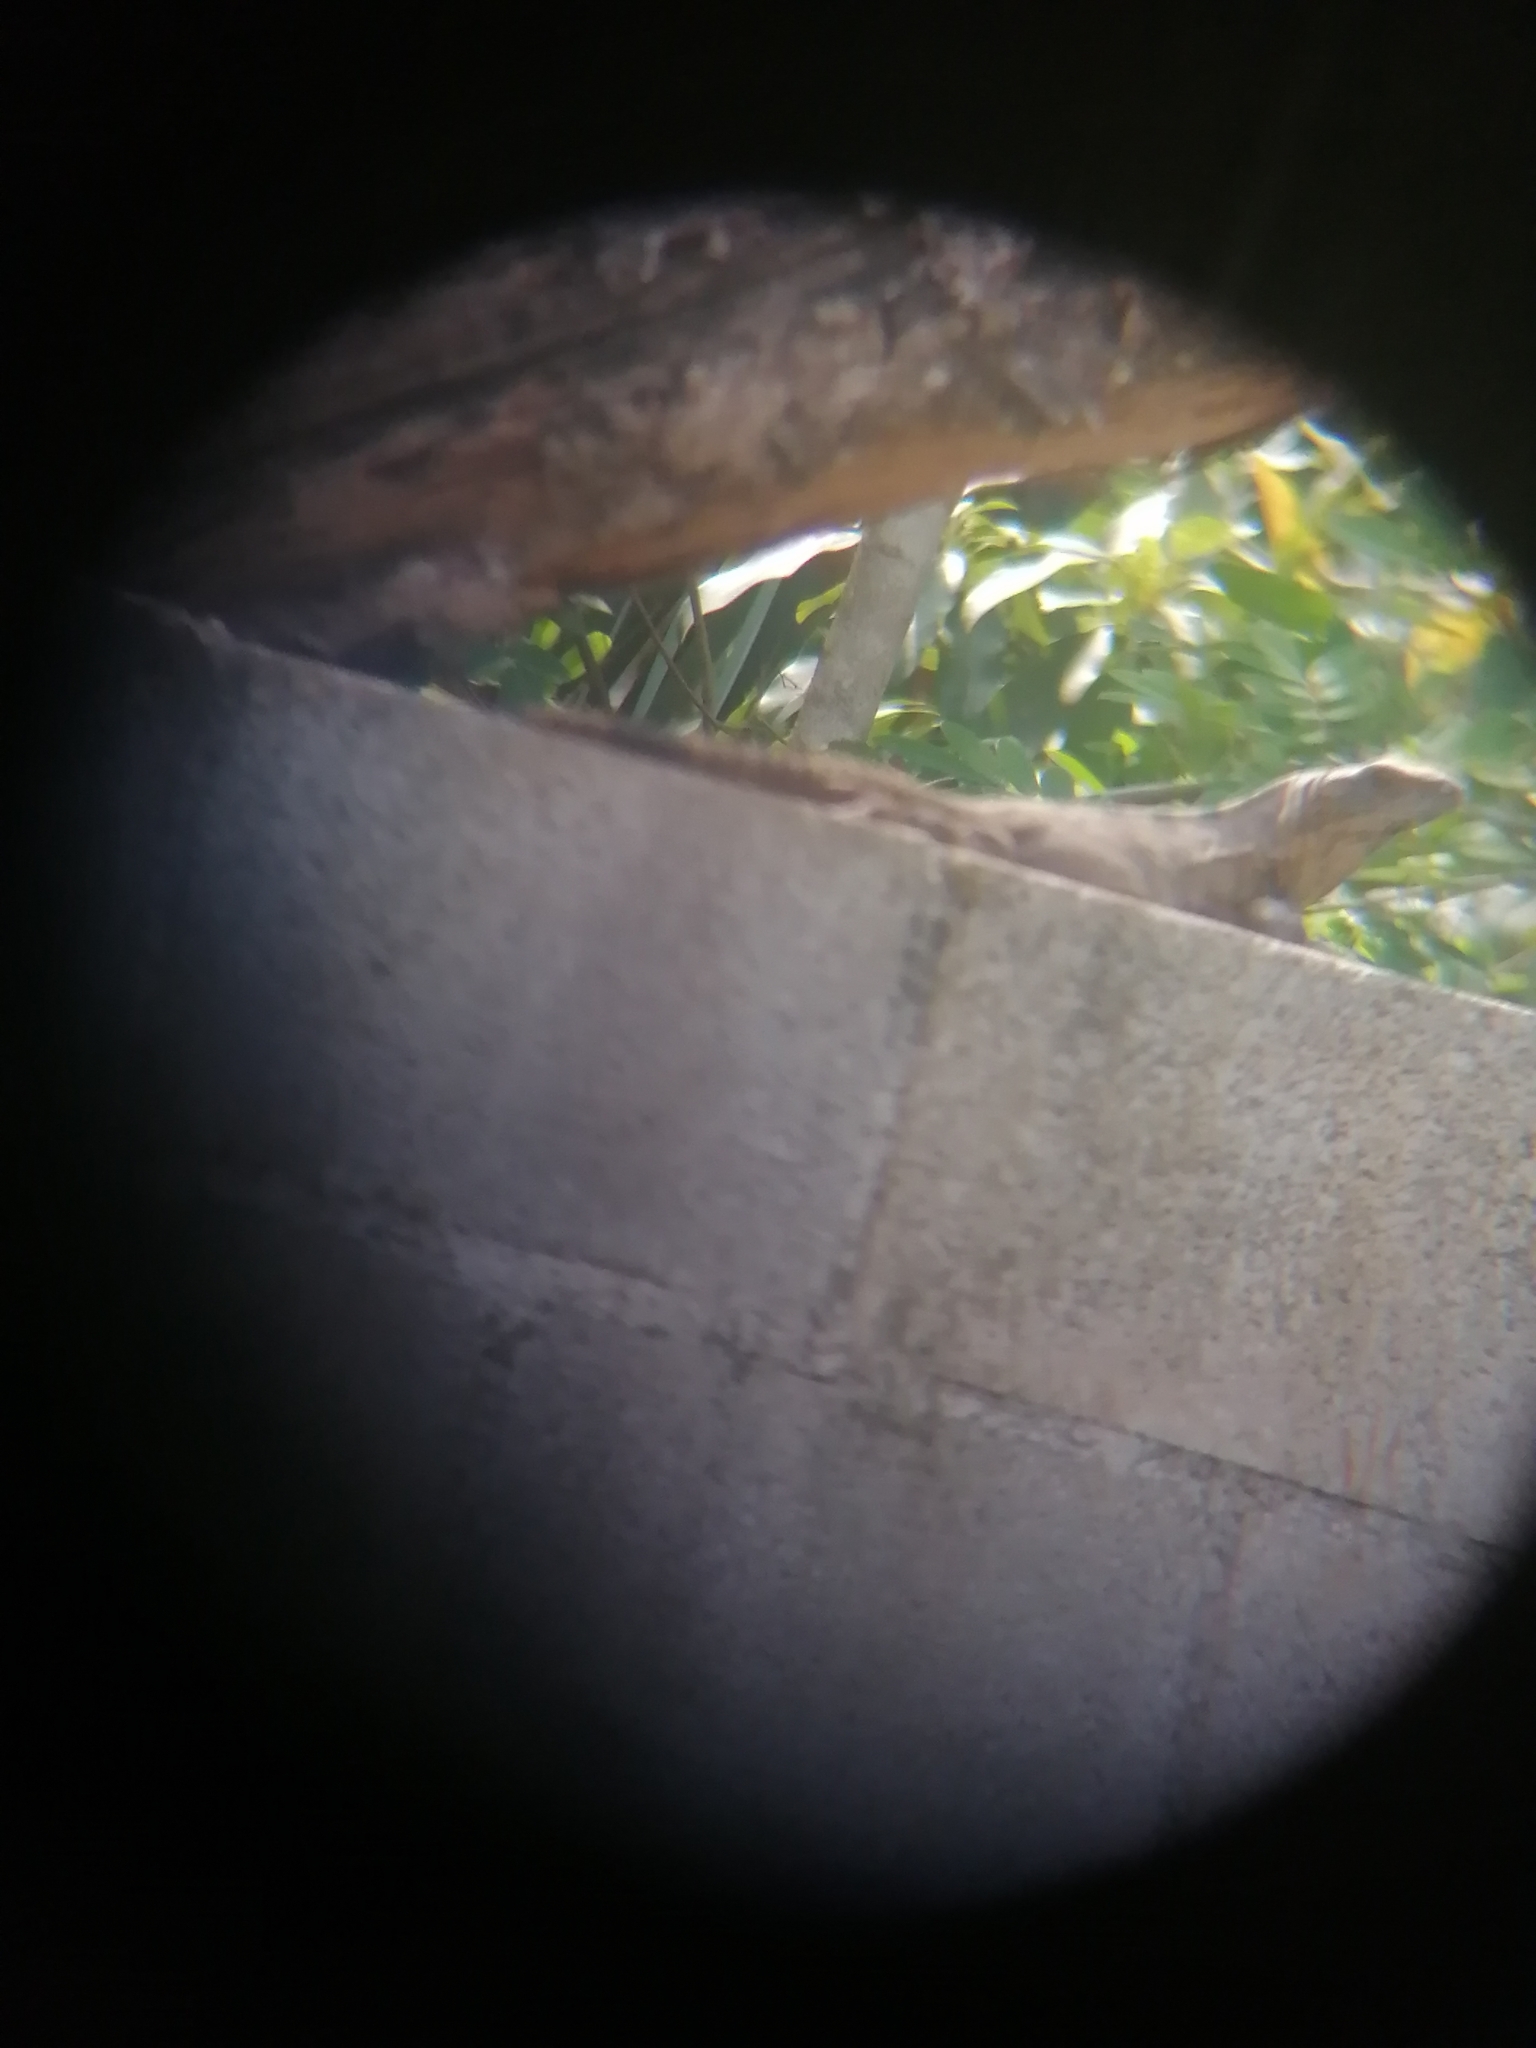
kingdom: Animalia
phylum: Chordata
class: Squamata
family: Iguanidae
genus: Ctenosaura
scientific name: Ctenosaura similis
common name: Black spiny-tailed iguana
